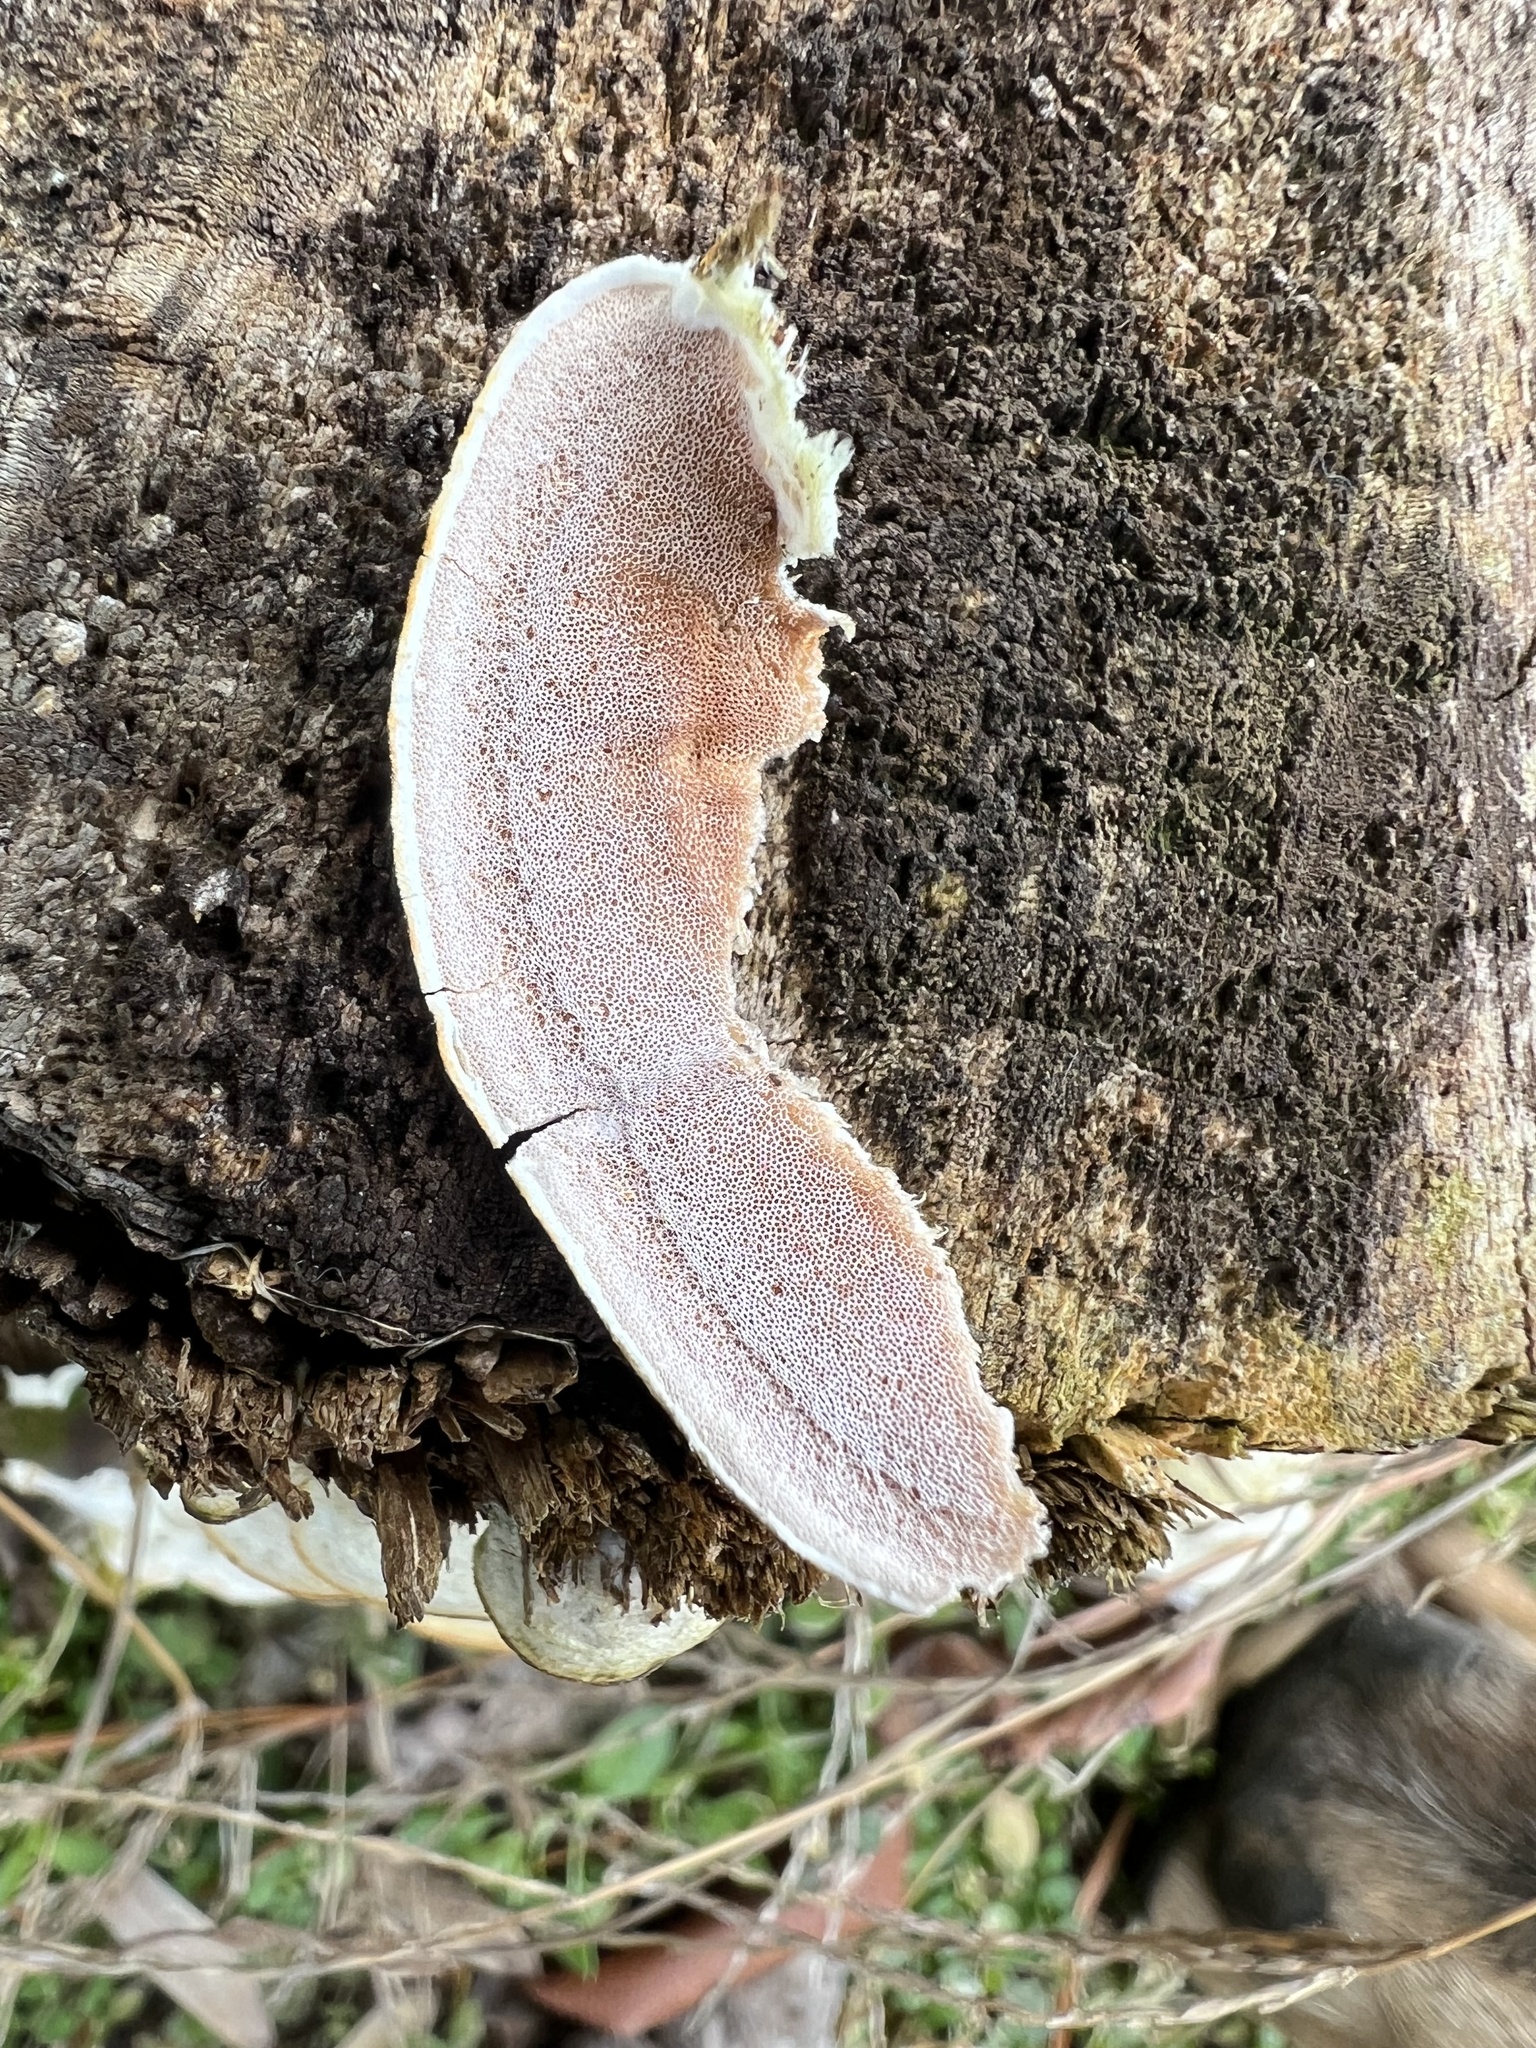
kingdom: Fungi
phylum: Basidiomycota
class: Agaricomycetes
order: Polyporales
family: Irpicaceae
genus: Vitreoporus
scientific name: Vitreoporus dichrous
